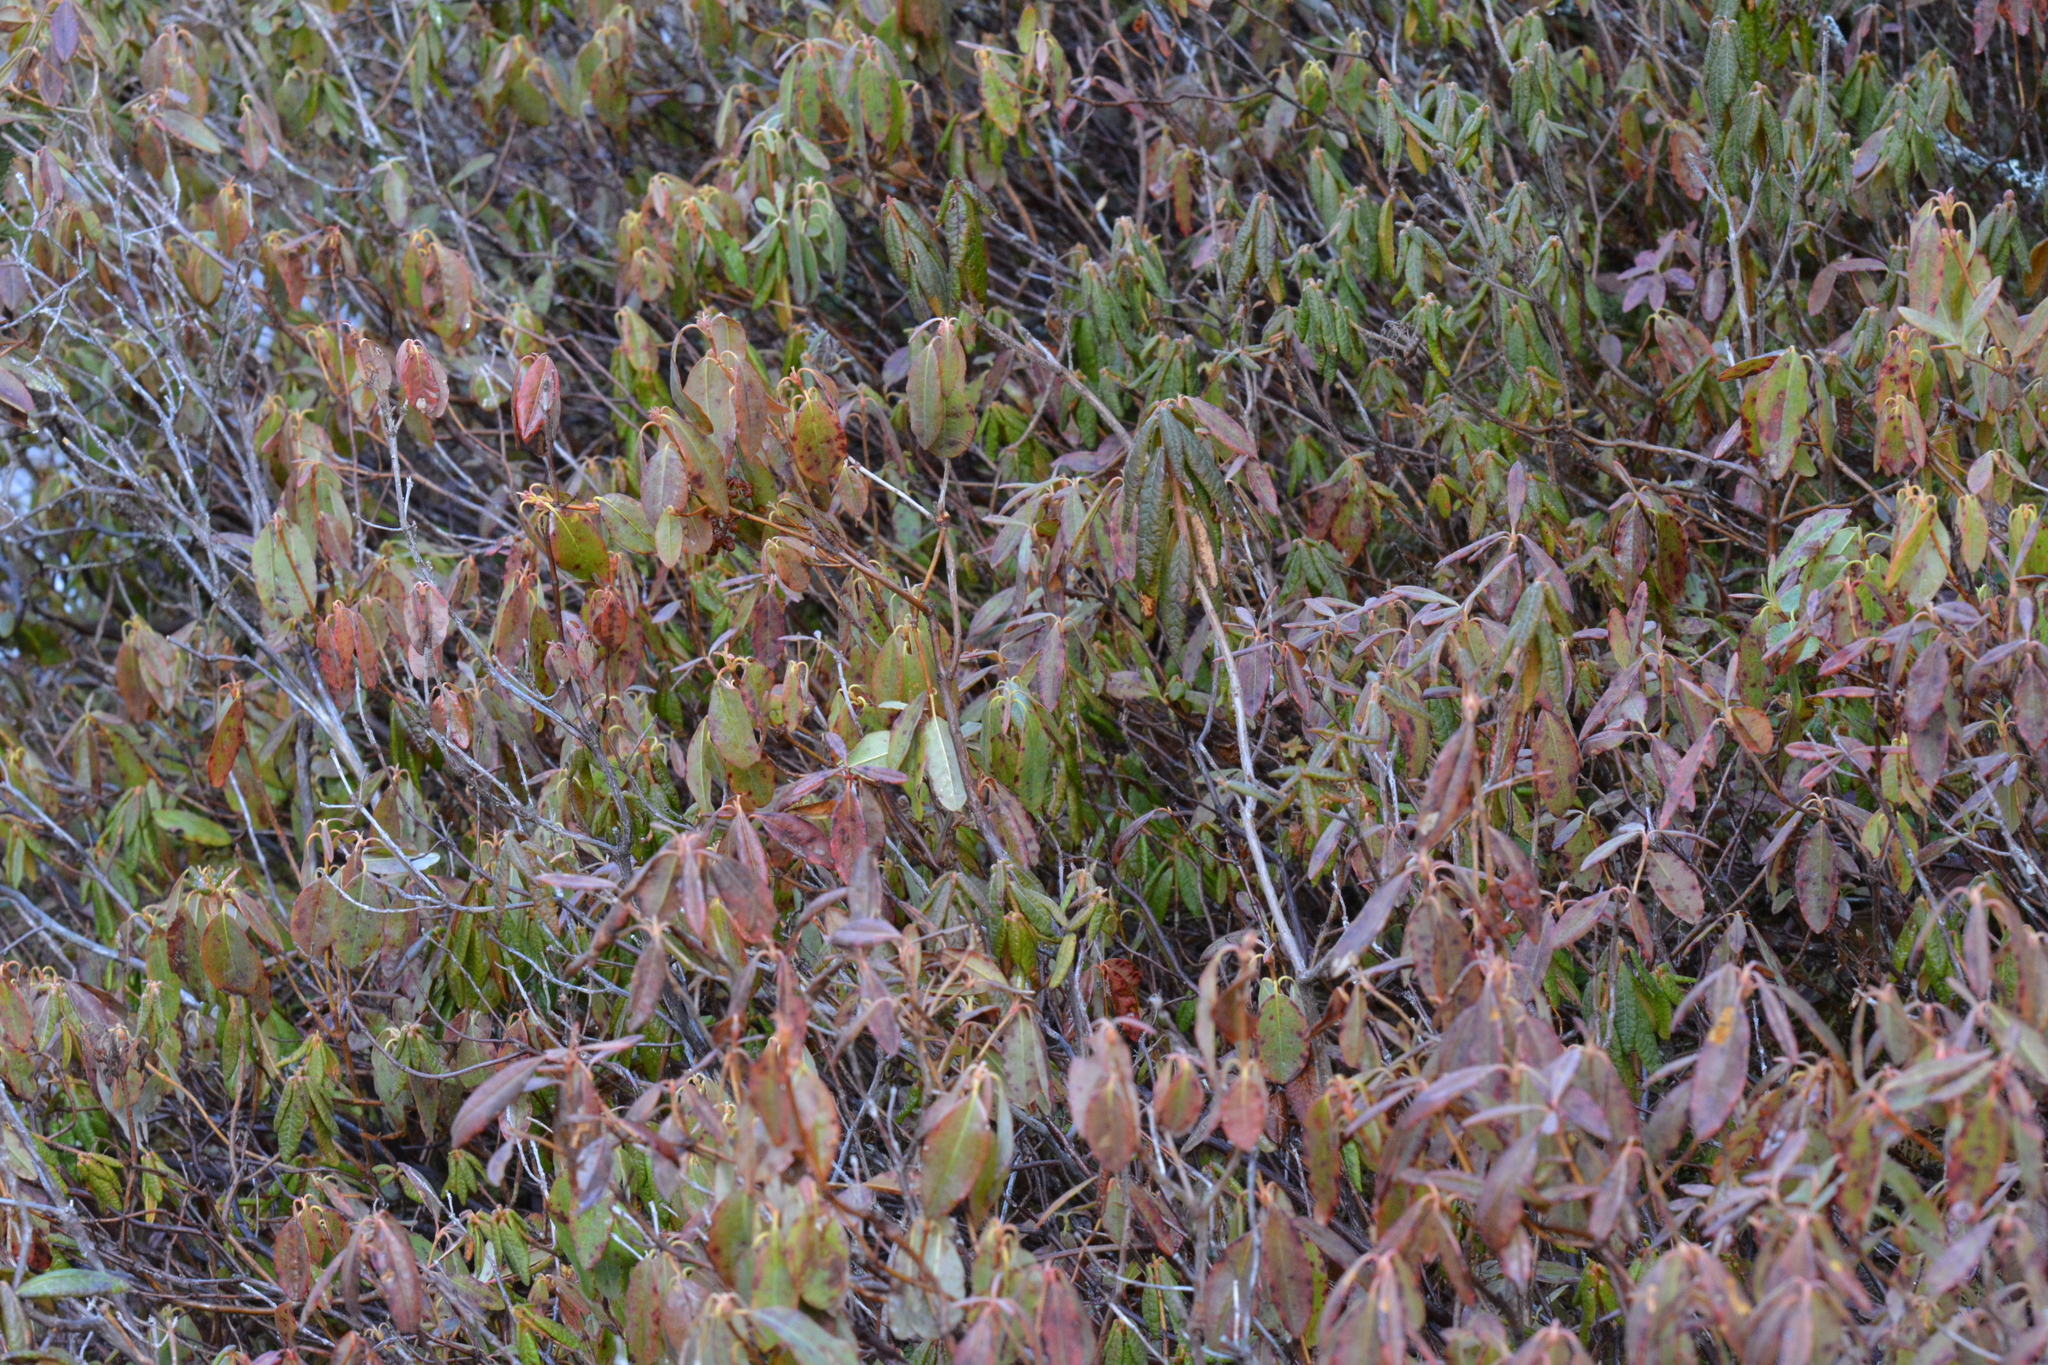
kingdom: Plantae
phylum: Tracheophyta
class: Magnoliopsida
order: Ericales
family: Ericaceae
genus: Kalmia
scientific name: Kalmia angustifolia
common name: Sheep-laurel
